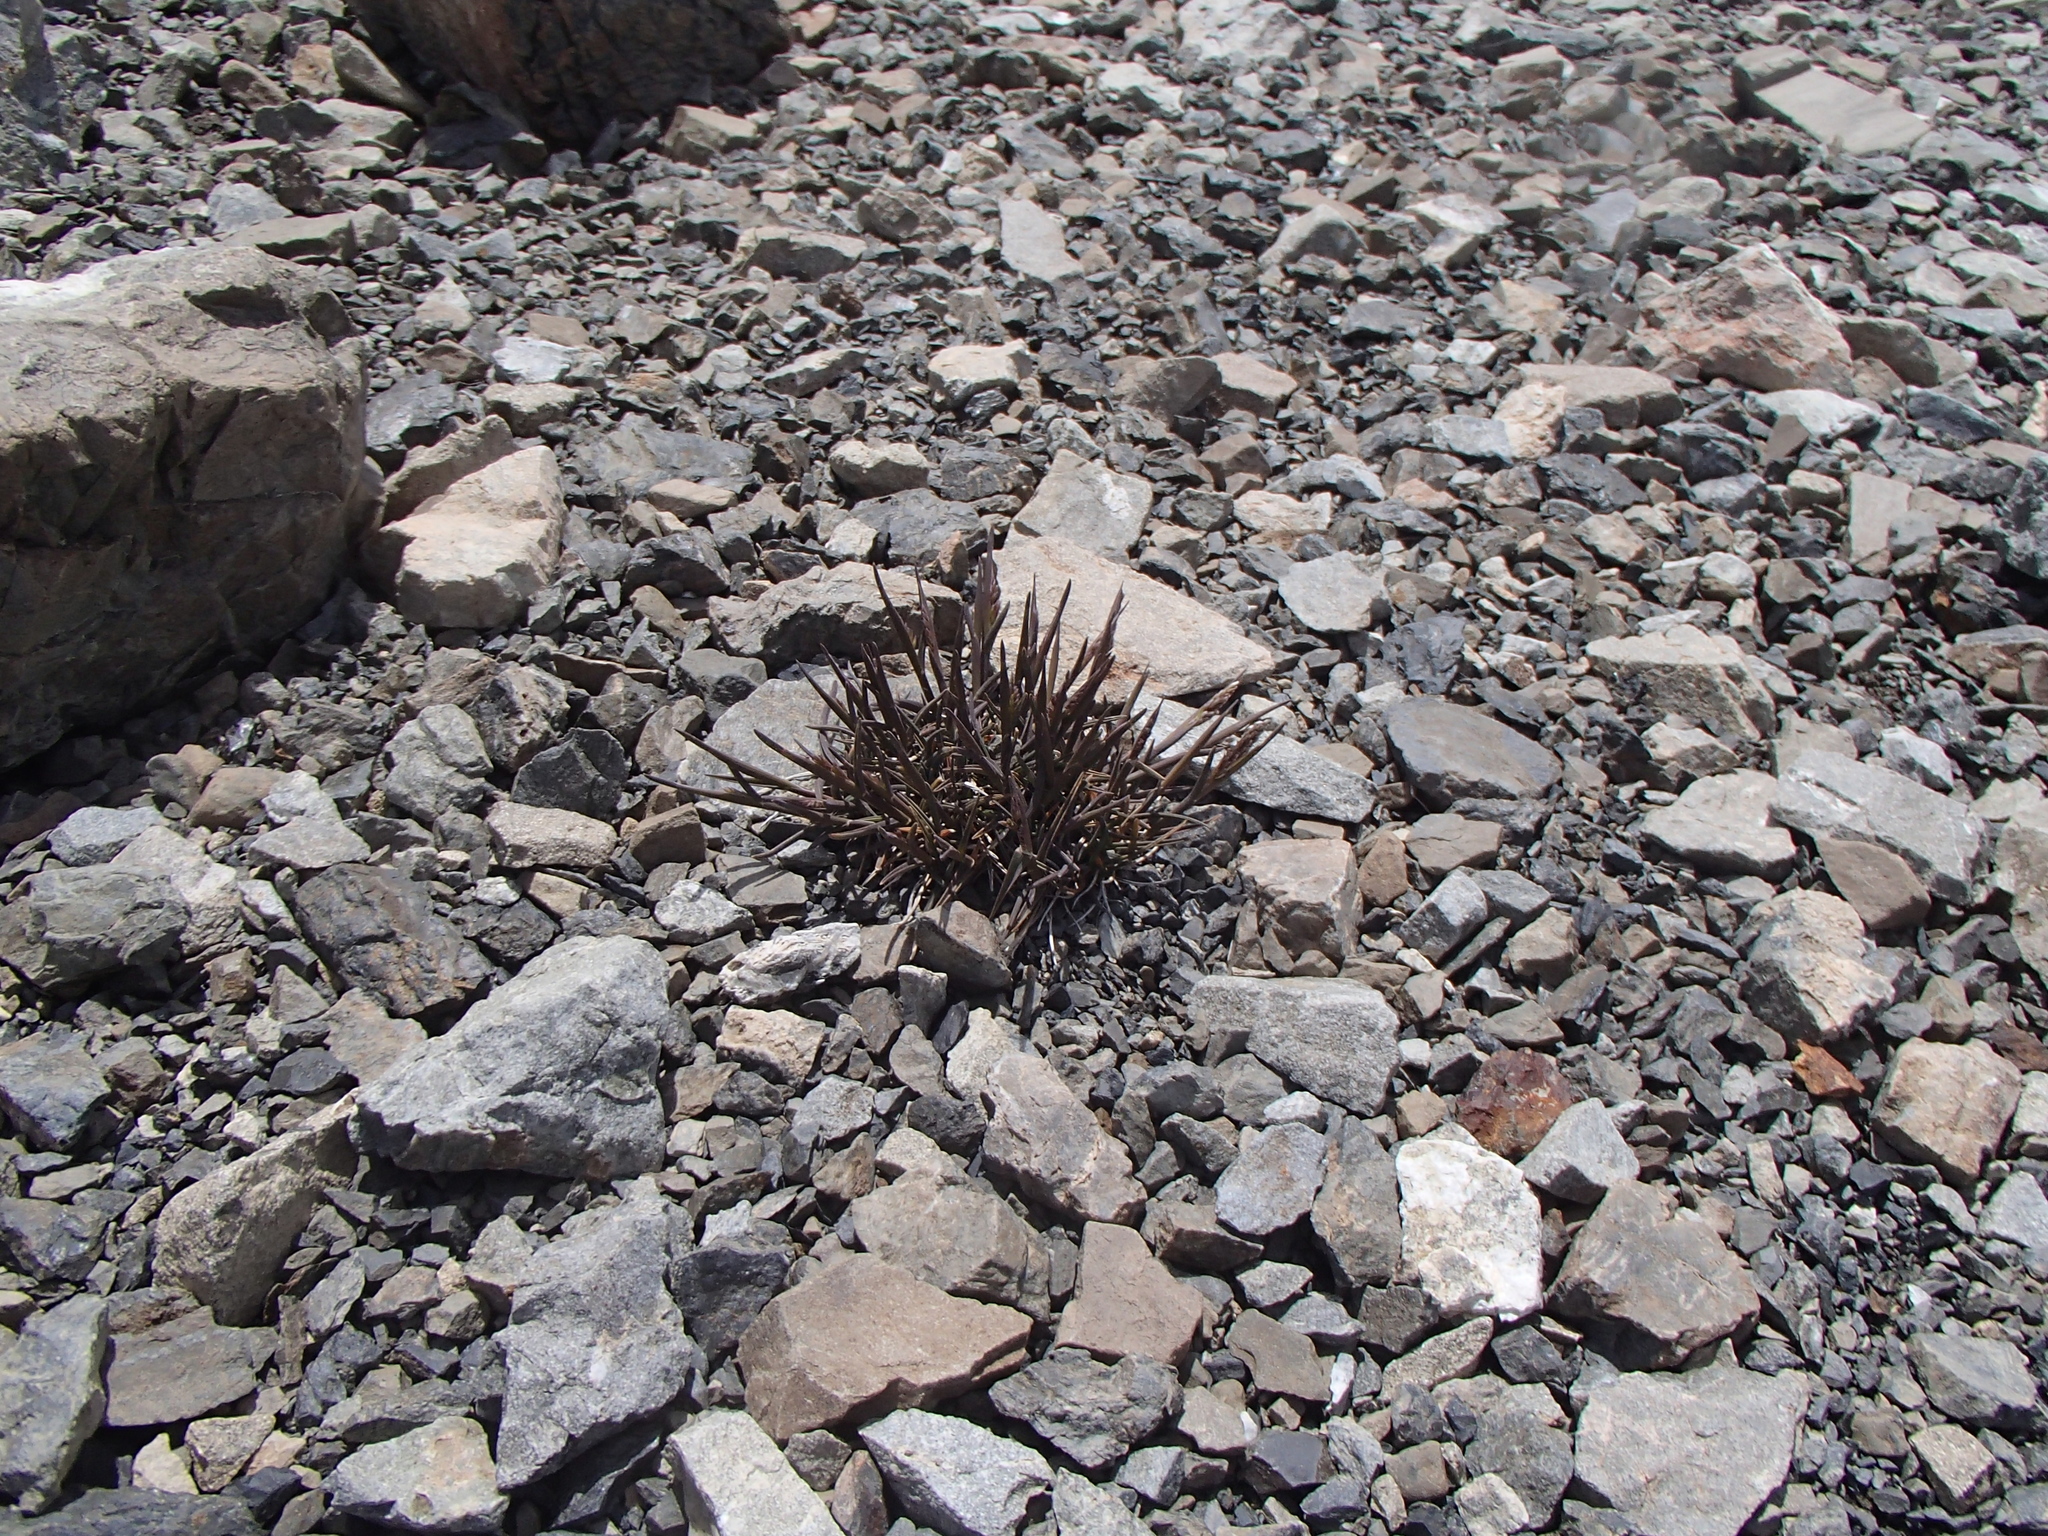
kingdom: Plantae
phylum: Tracheophyta
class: Liliopsida
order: Poales
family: Poaceae
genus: Poa
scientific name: Poa buchananii
